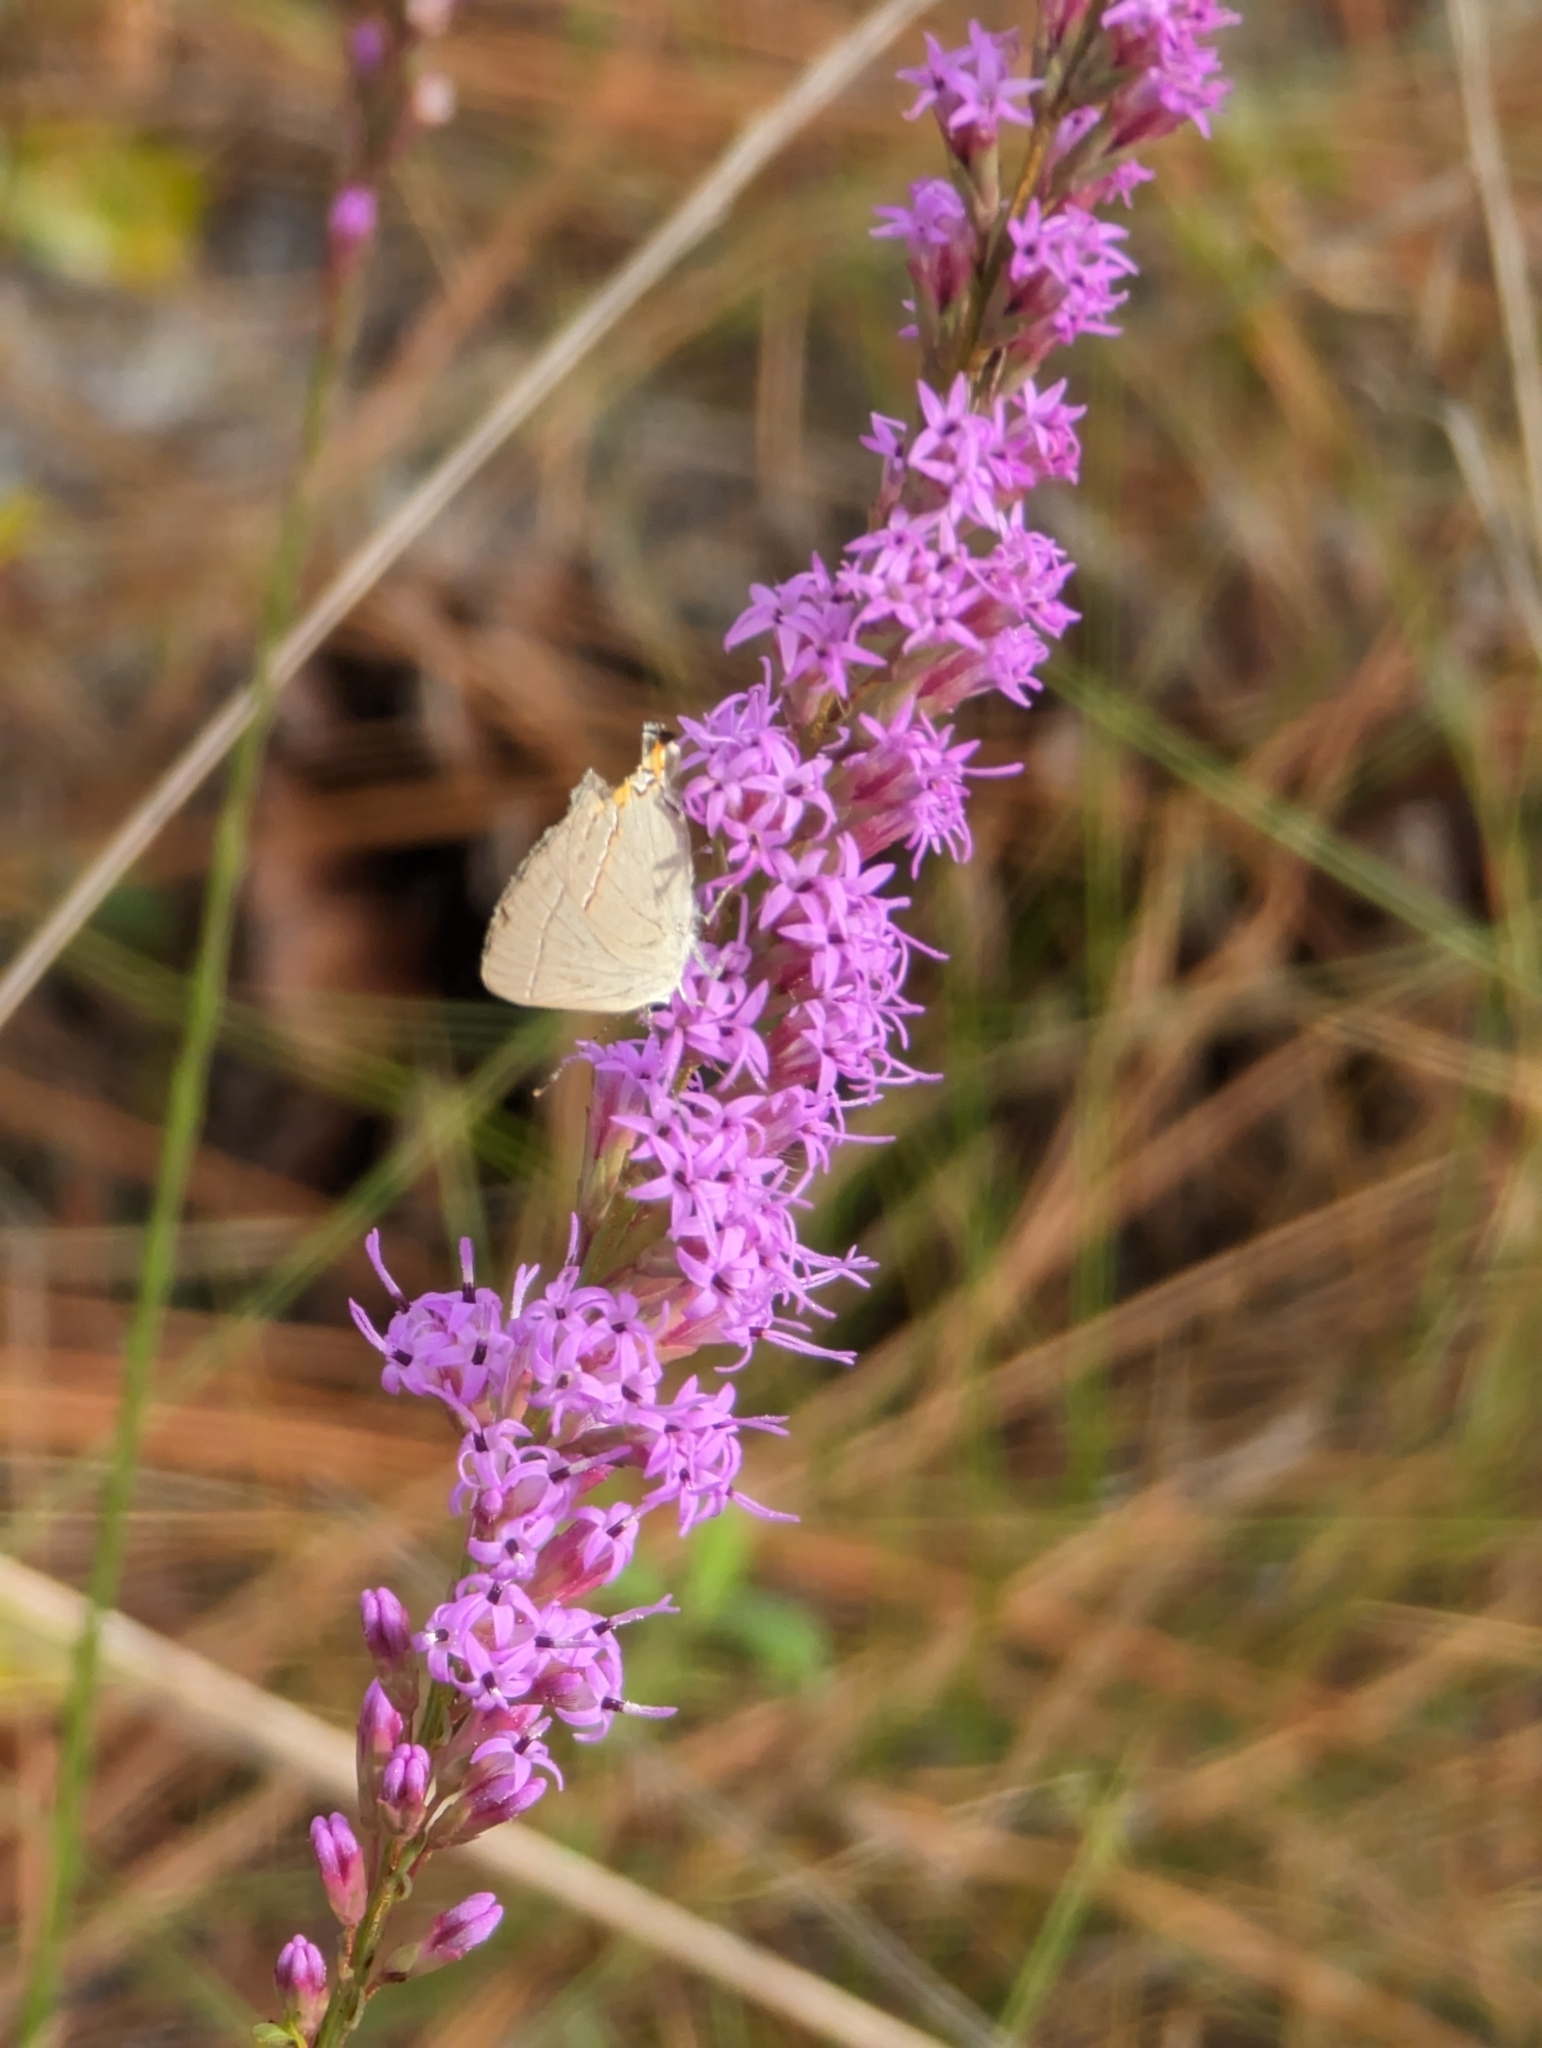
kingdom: Animalia
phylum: Arthropoda
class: Insecta
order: Lepidoptera
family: Lycaenidae
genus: Strymon
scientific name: Strymon melinus
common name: Gray hairstreak
